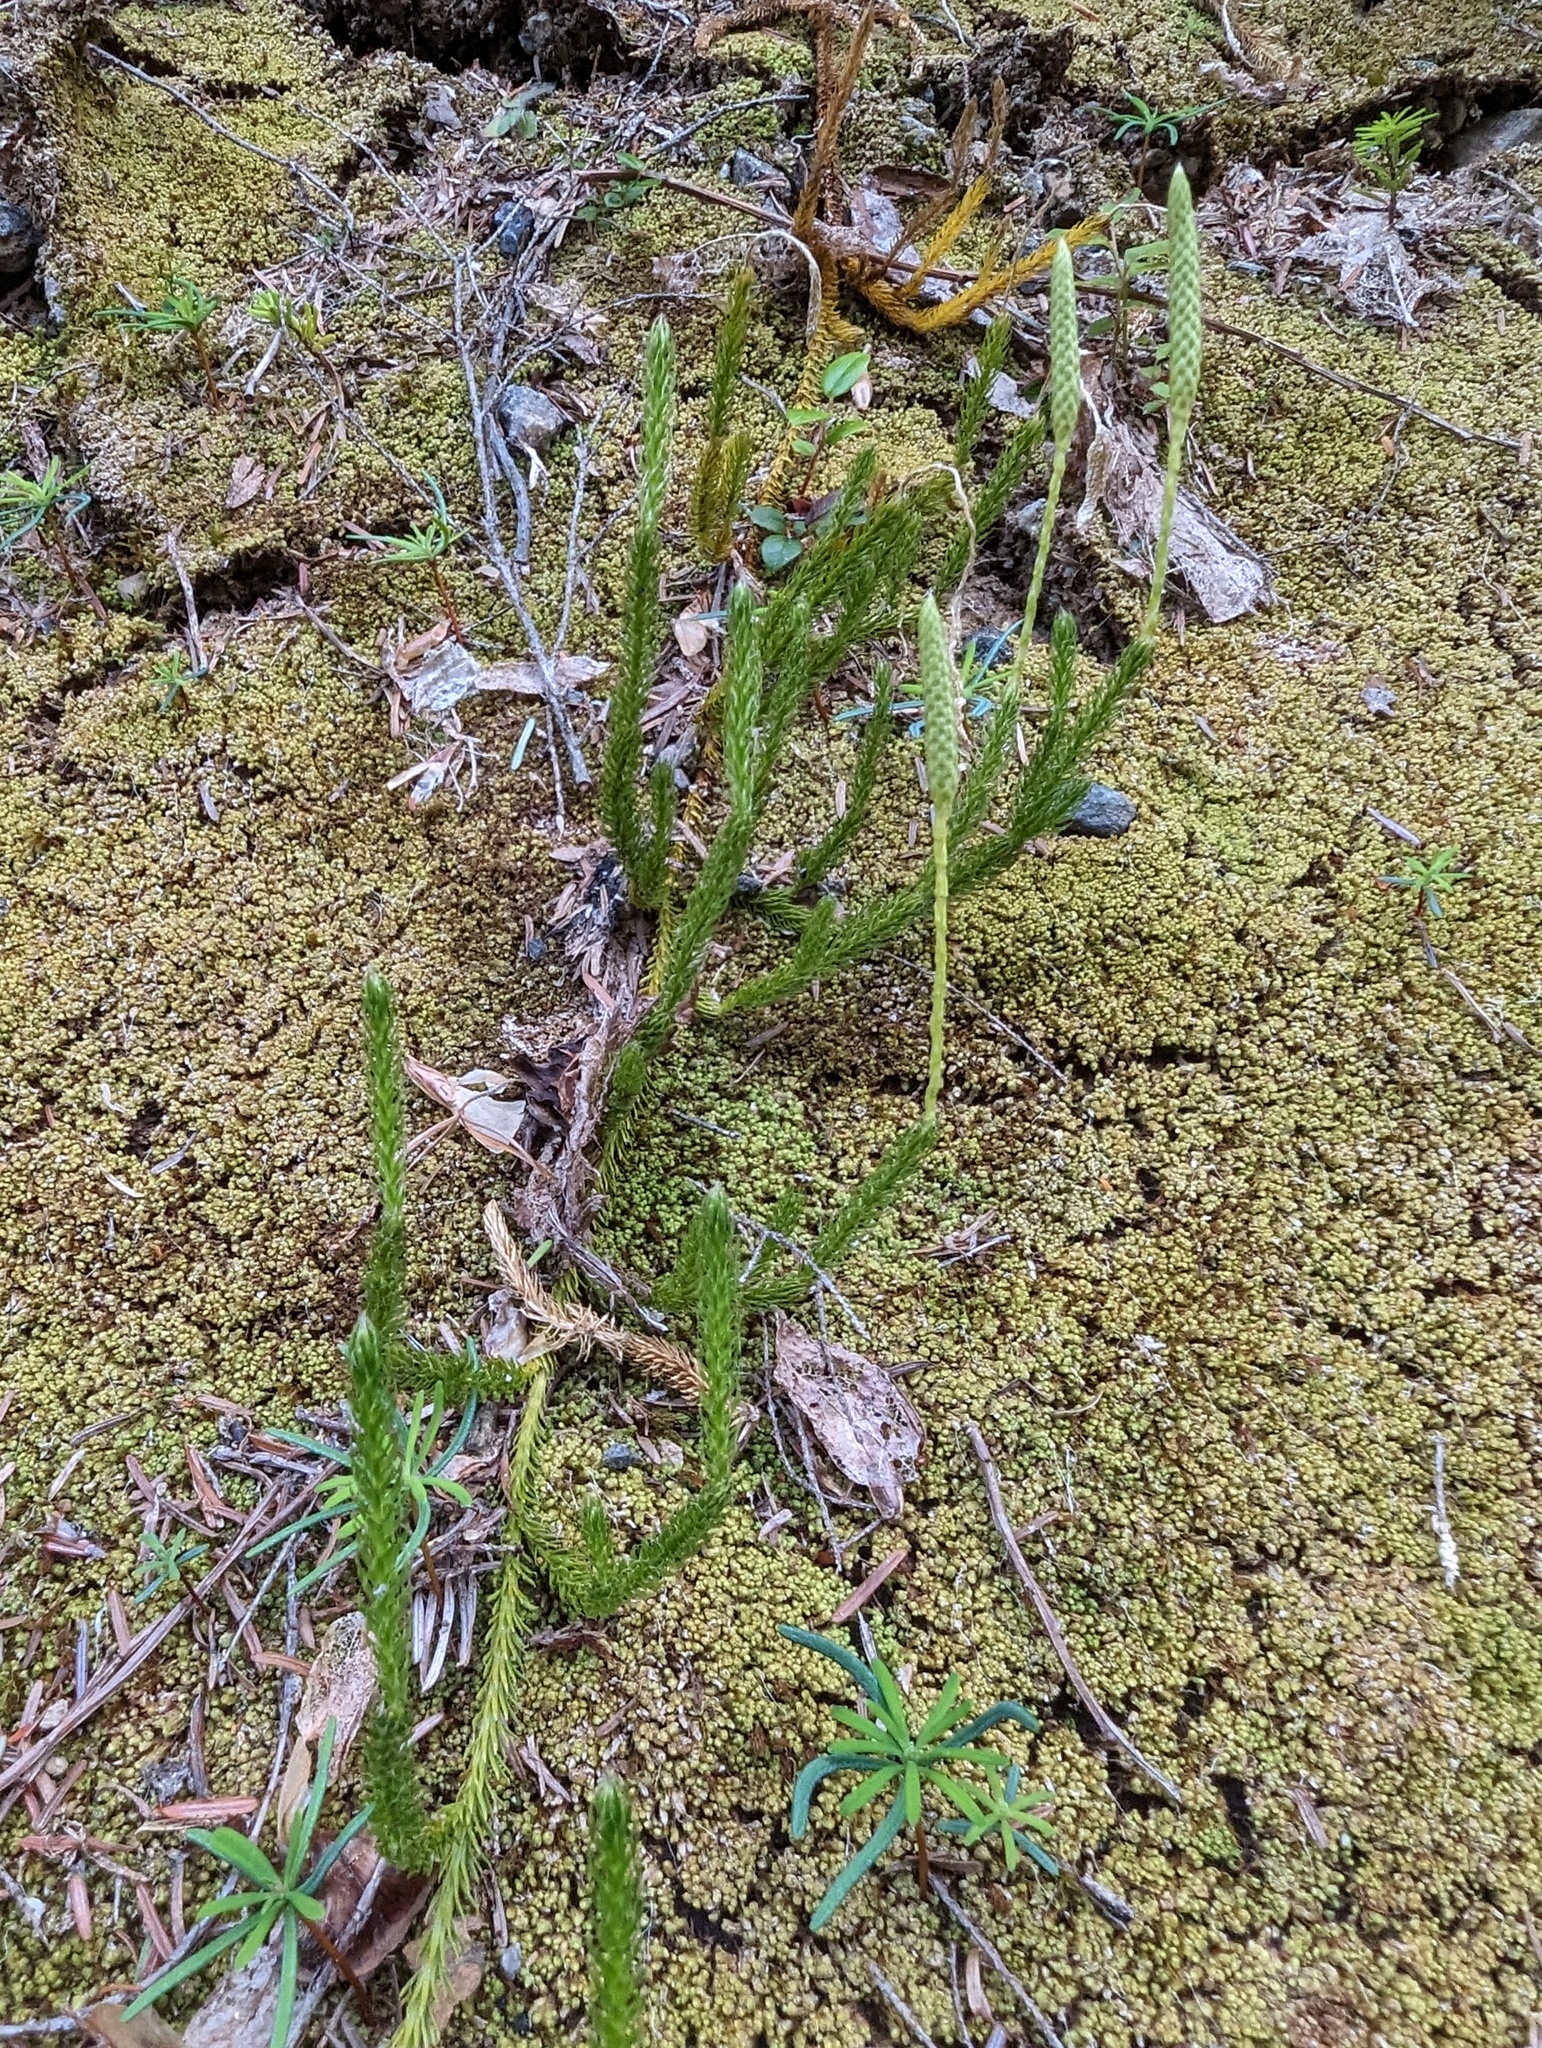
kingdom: Plantae
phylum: Tracheophyta
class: Lycopodiopsida
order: Lycopodiales
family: Lycopodiaceae
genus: Lycopodium
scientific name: Lycopodium lagopus
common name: One-cone clubmoss
